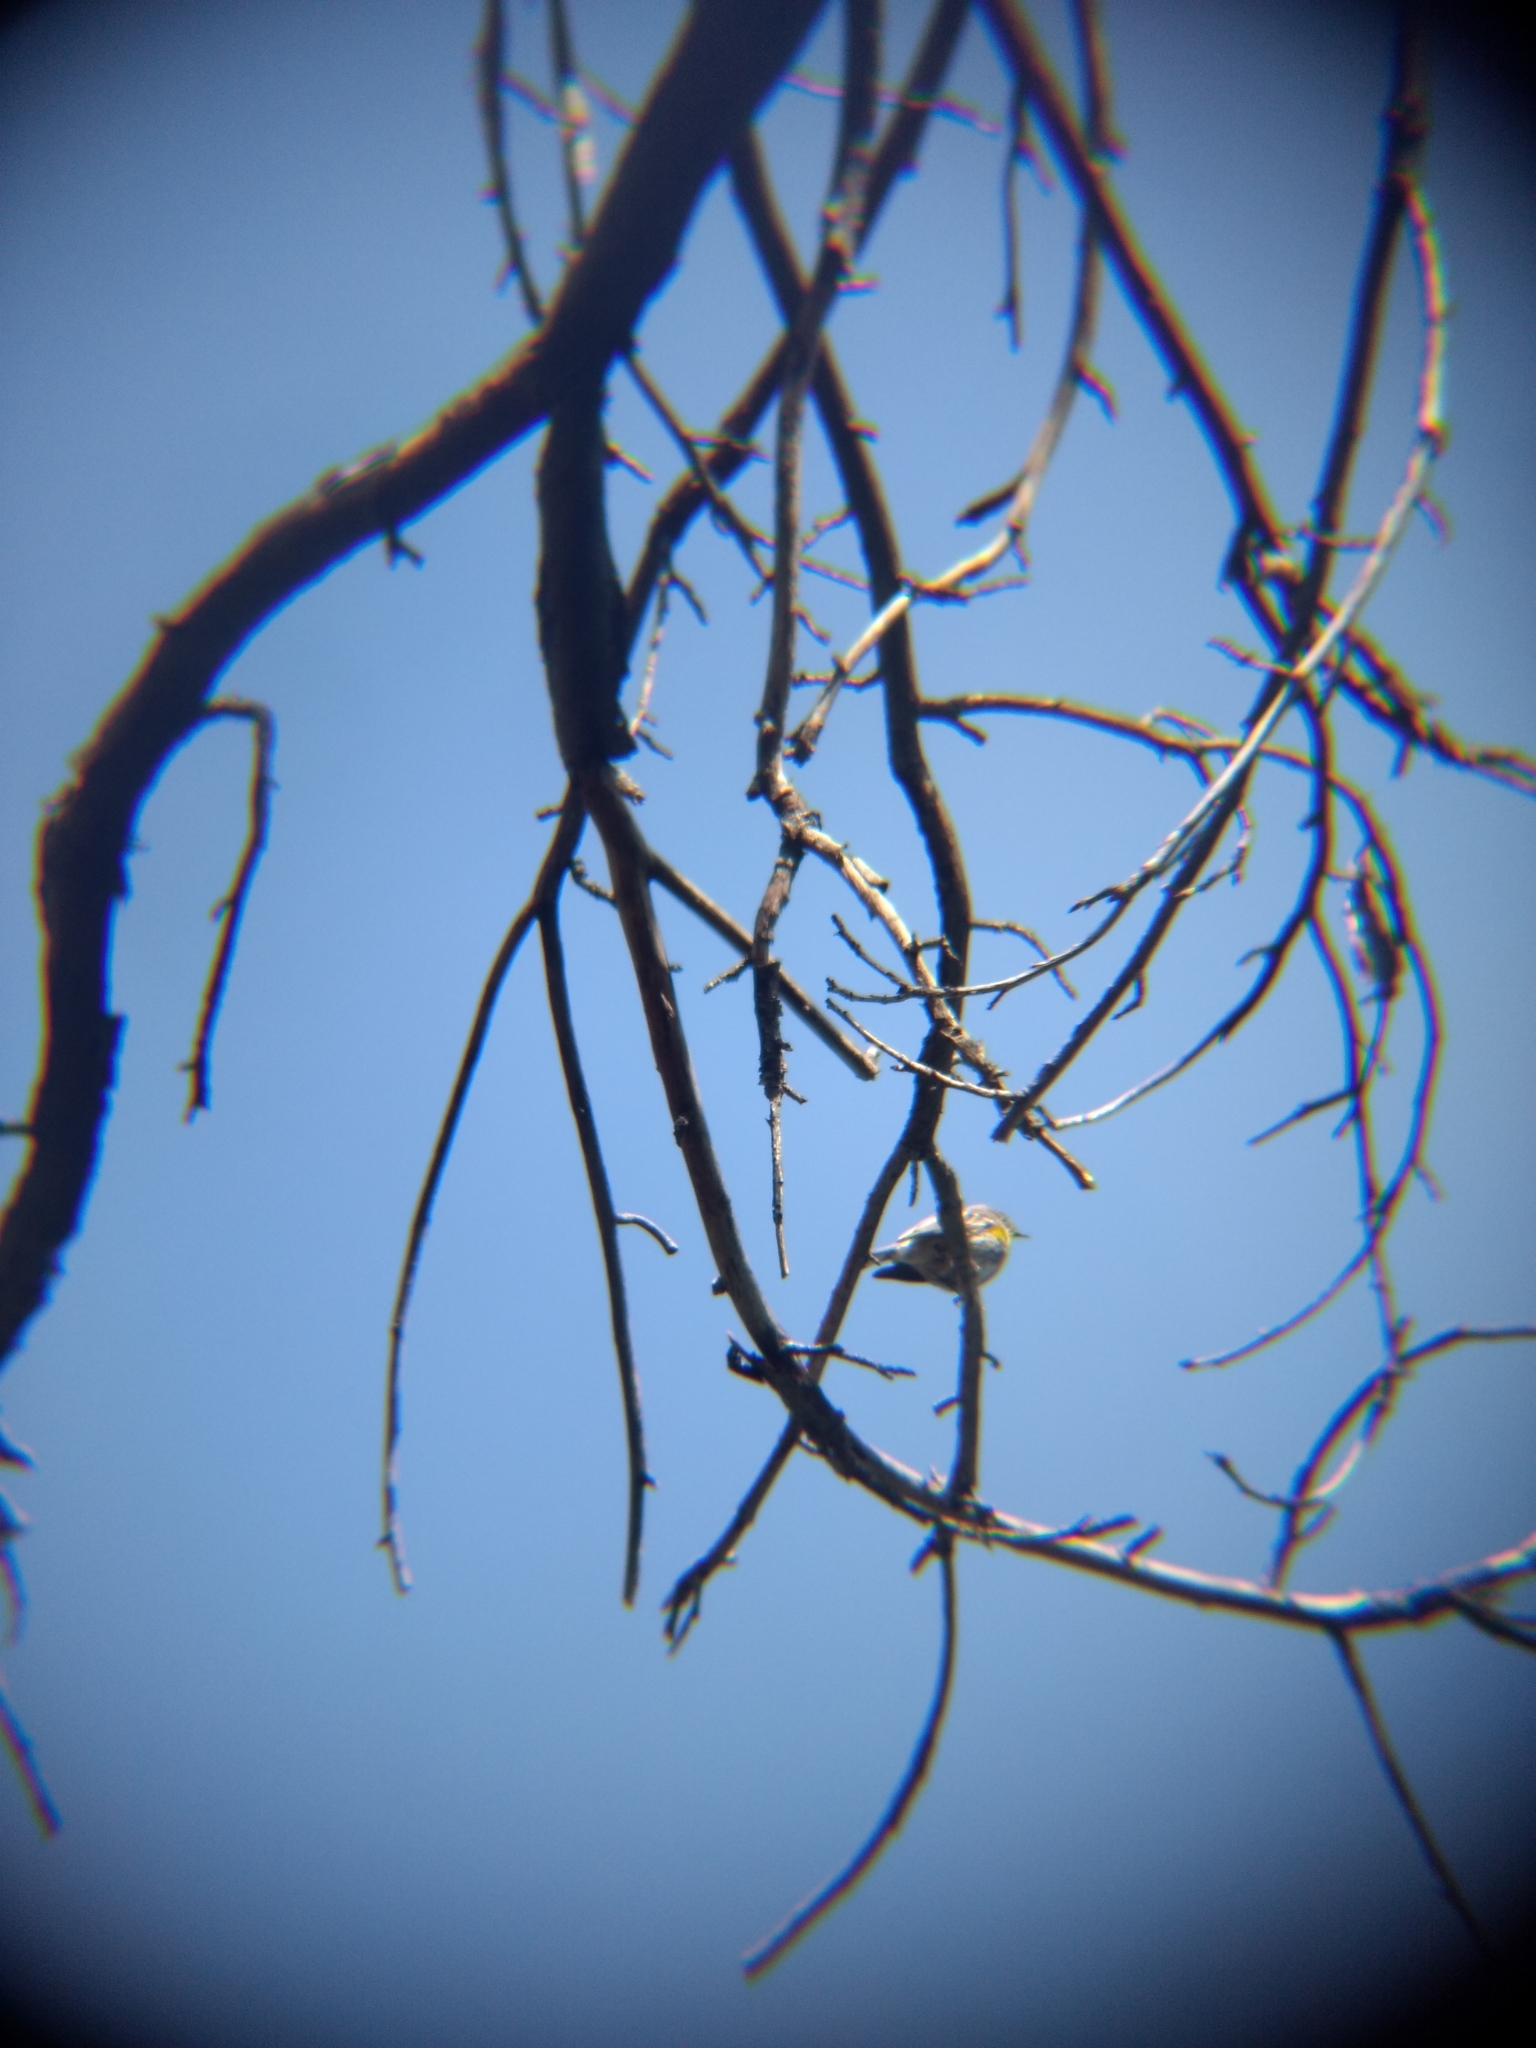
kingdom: Animalia
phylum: Chordata
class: Aves
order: Passeriformes
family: Parulidae
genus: Setophaga
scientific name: Setophaga coronata
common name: Myrtle warbler
